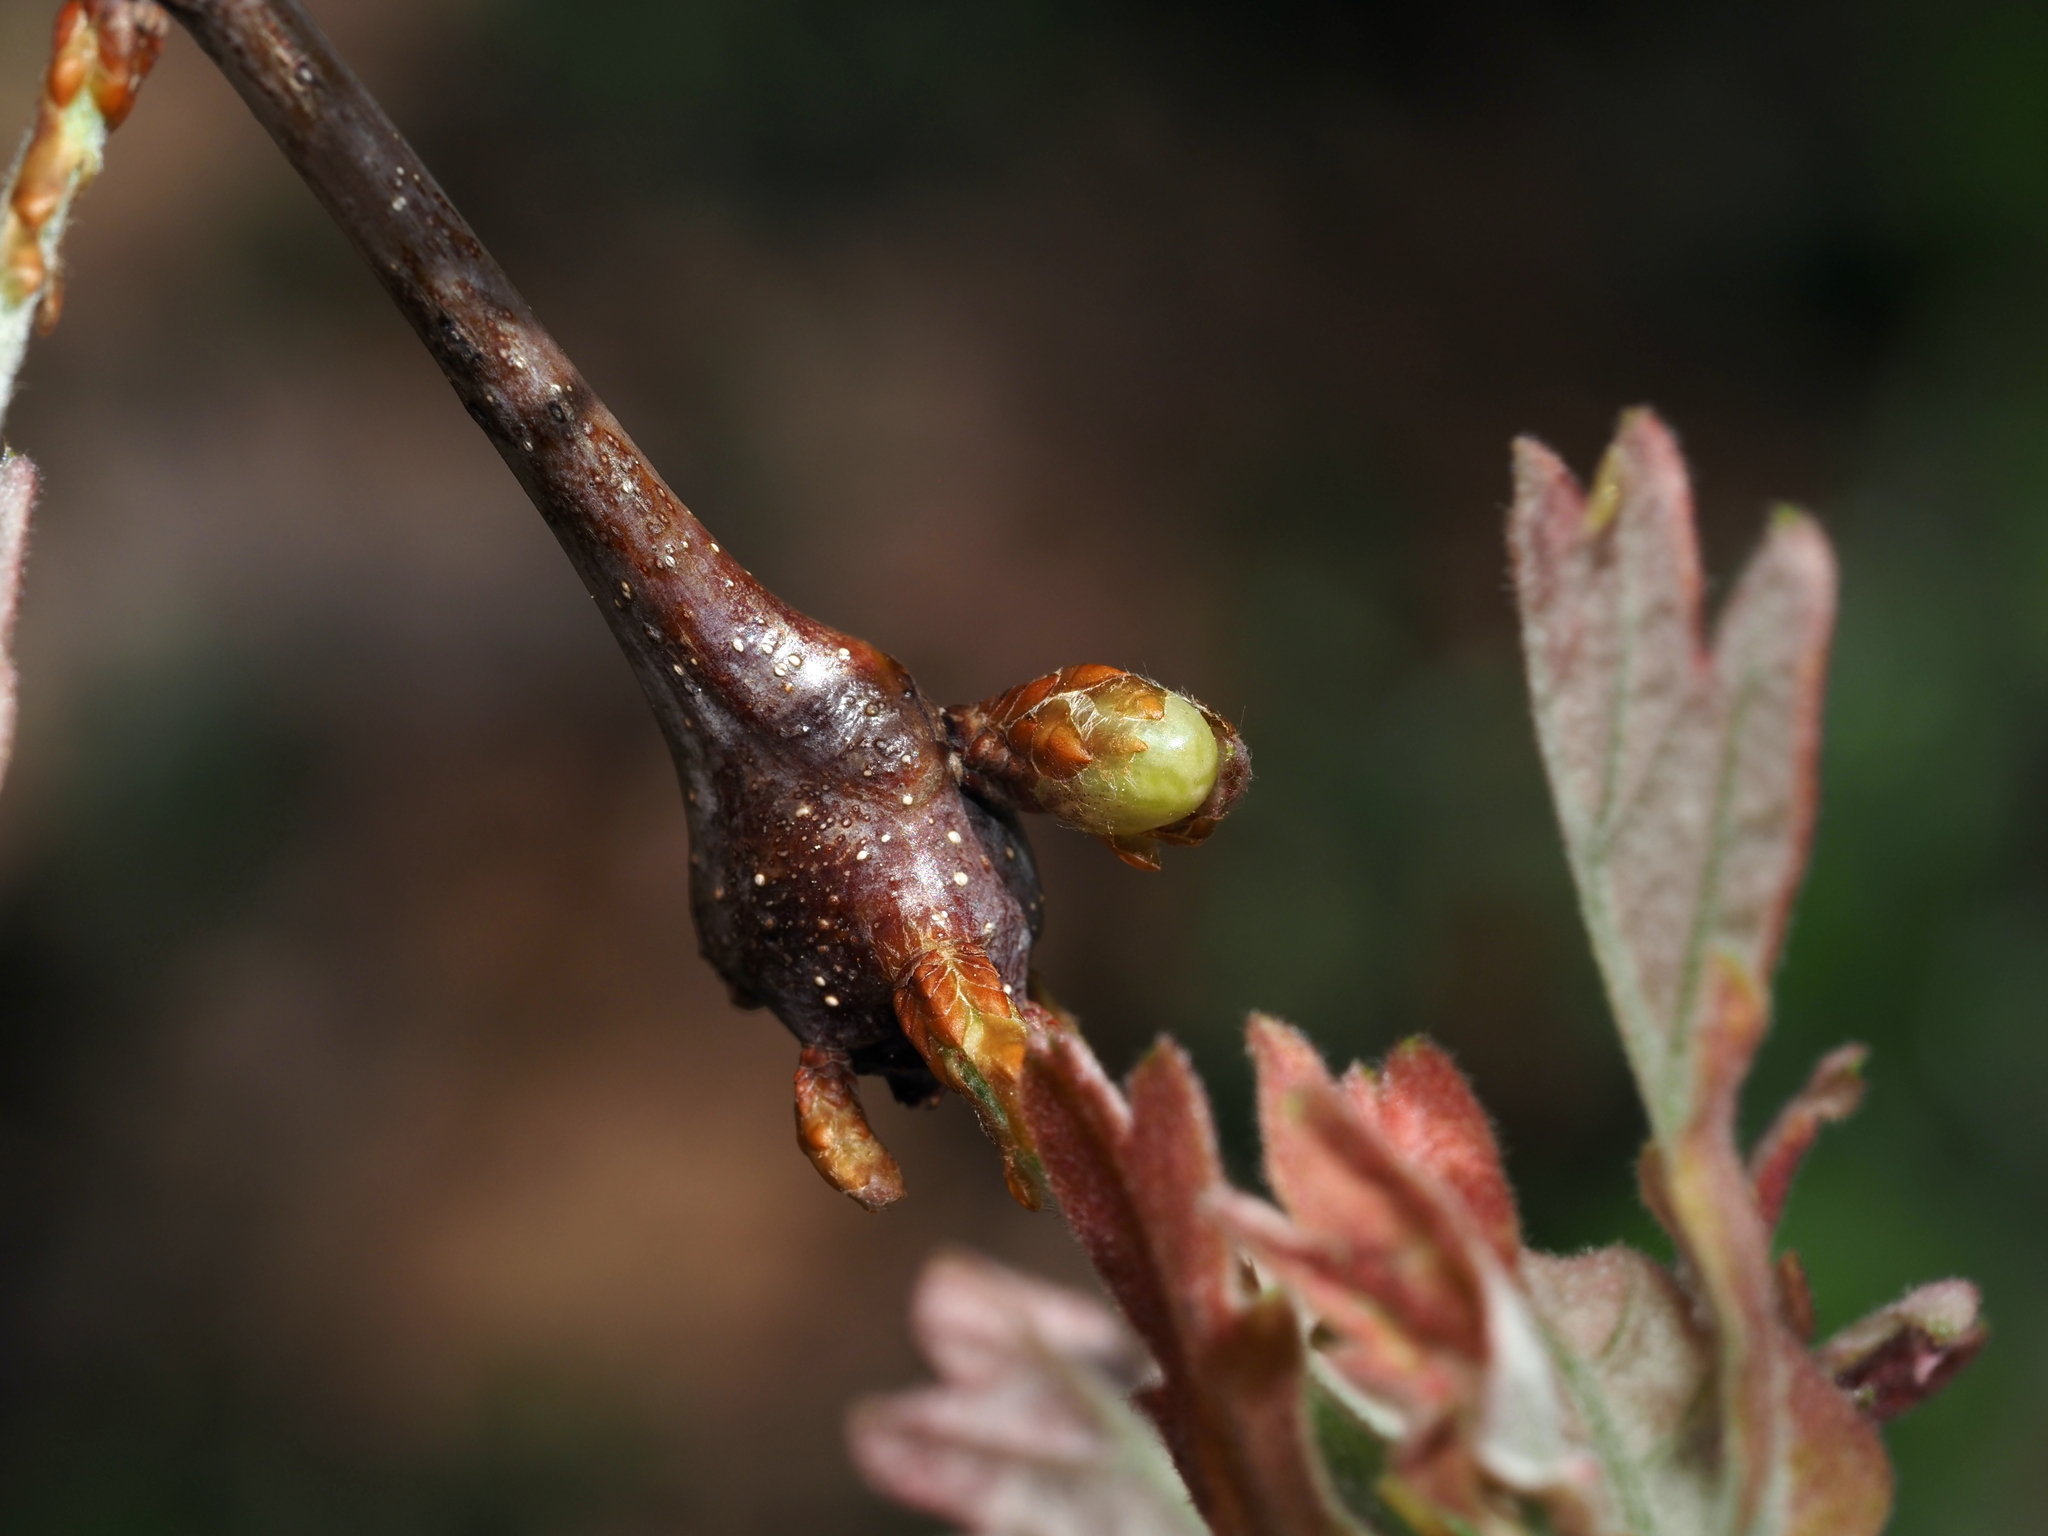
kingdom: Animalia
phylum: Arthropoda
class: Insecta
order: Hymenoptera
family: Cynipidae
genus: Neuroterus
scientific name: Neuroterus
